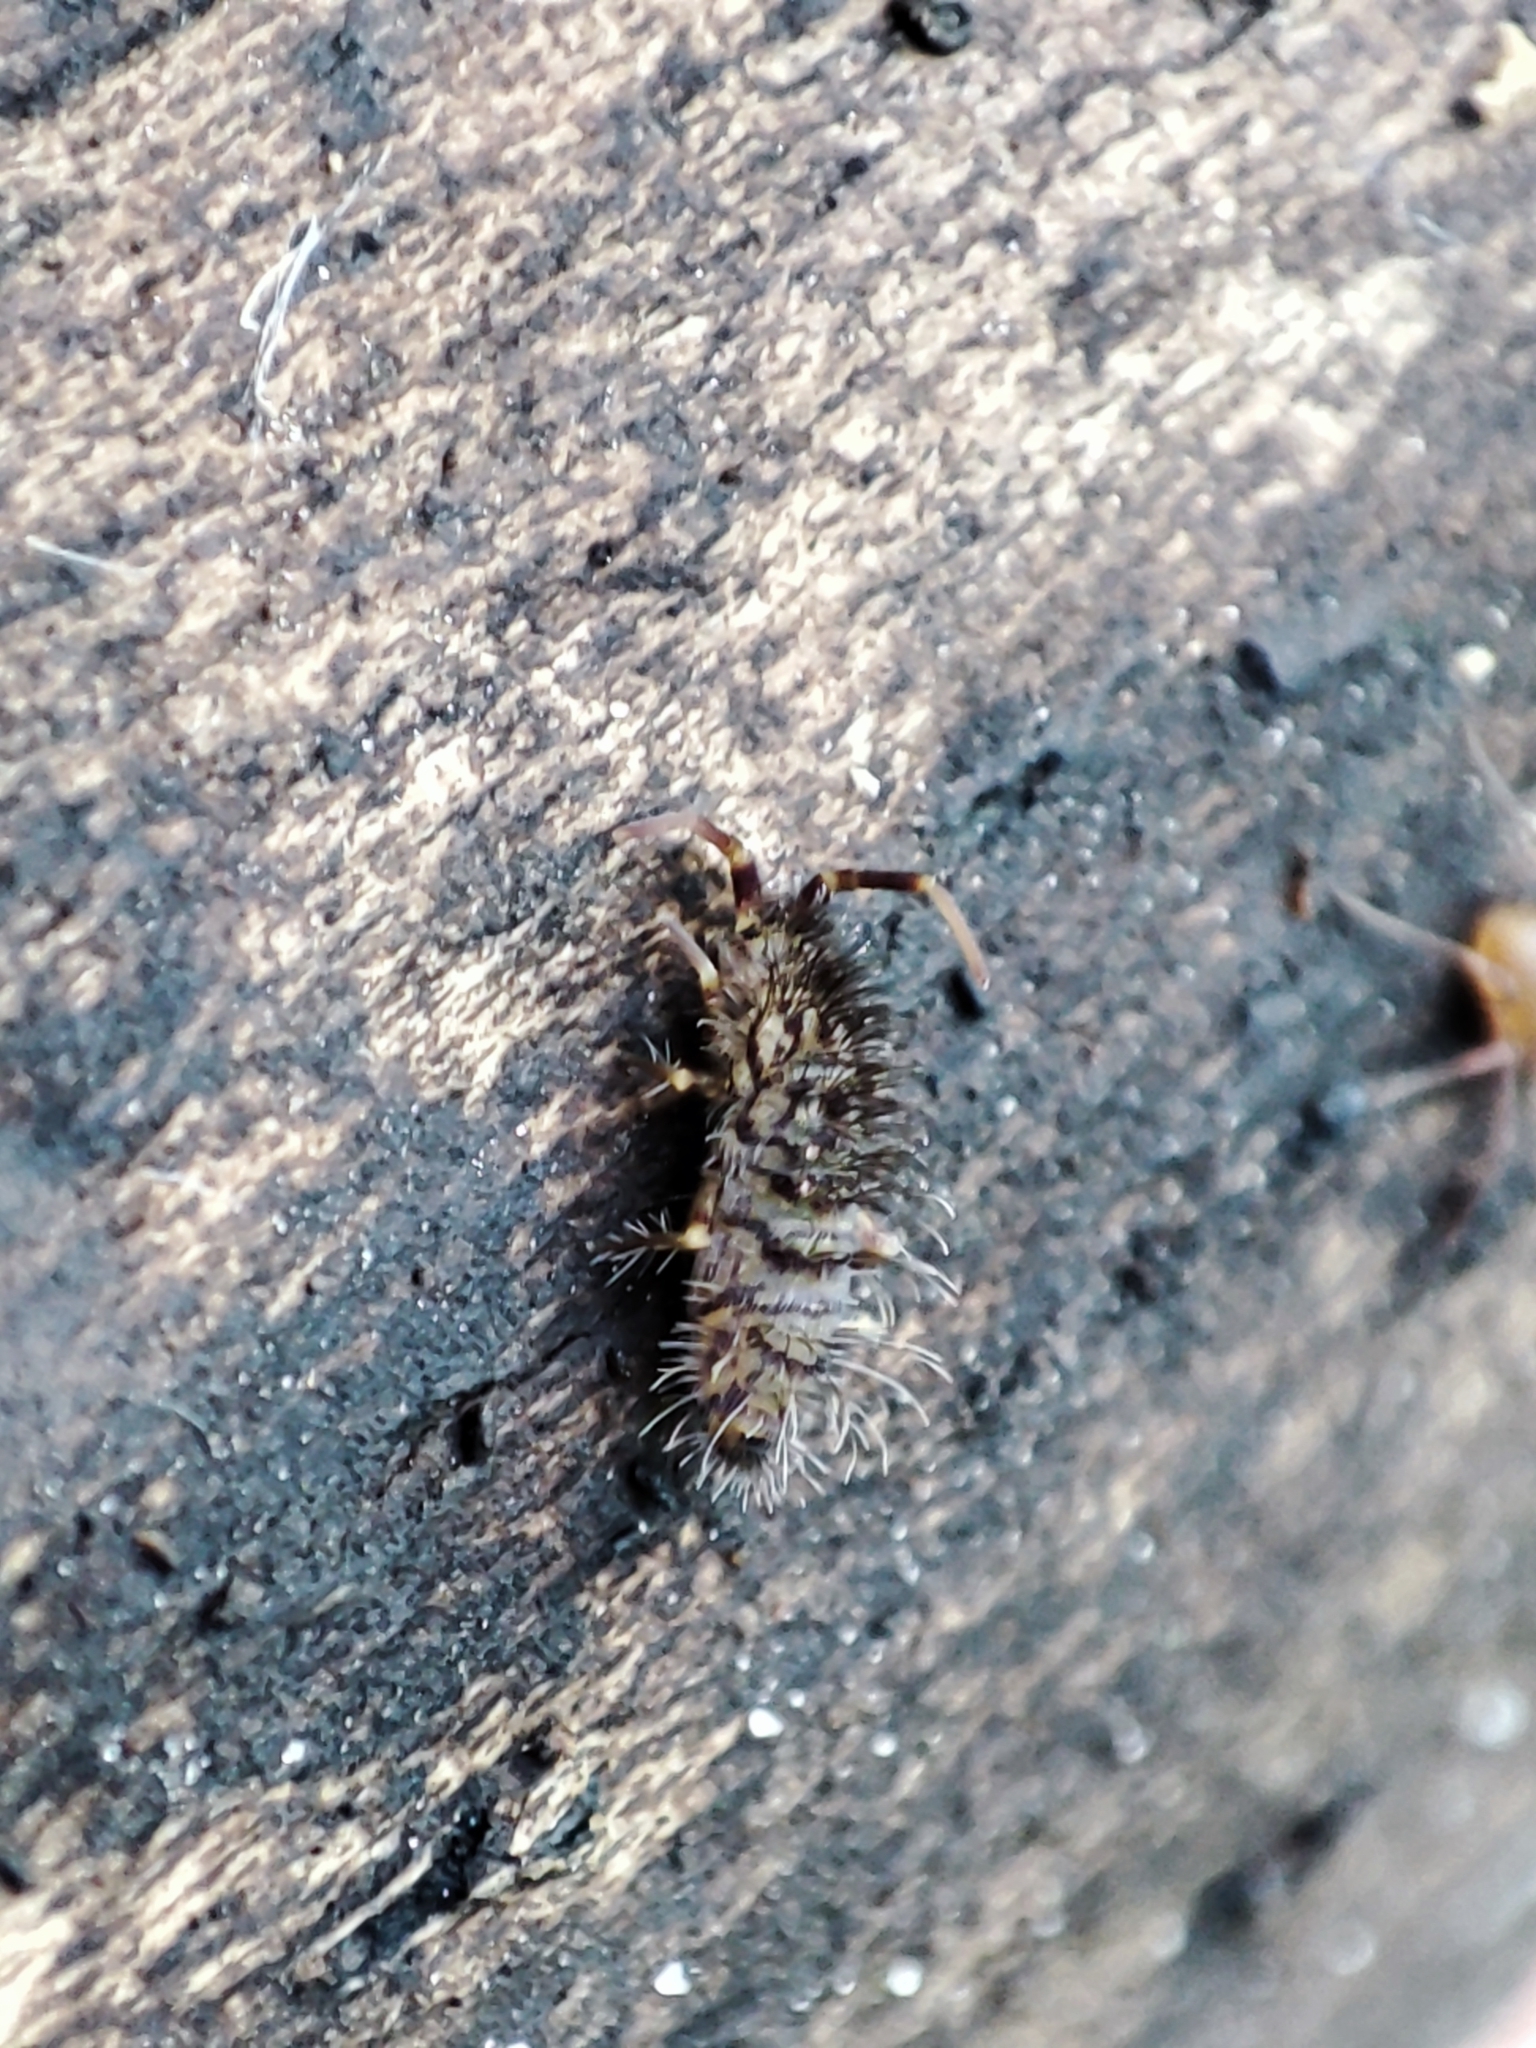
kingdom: Animalia
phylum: Arthropoda
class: Collembola
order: Entomobryomorpha
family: Orchesellidae
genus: Orchesella
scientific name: Orchesella villosa
